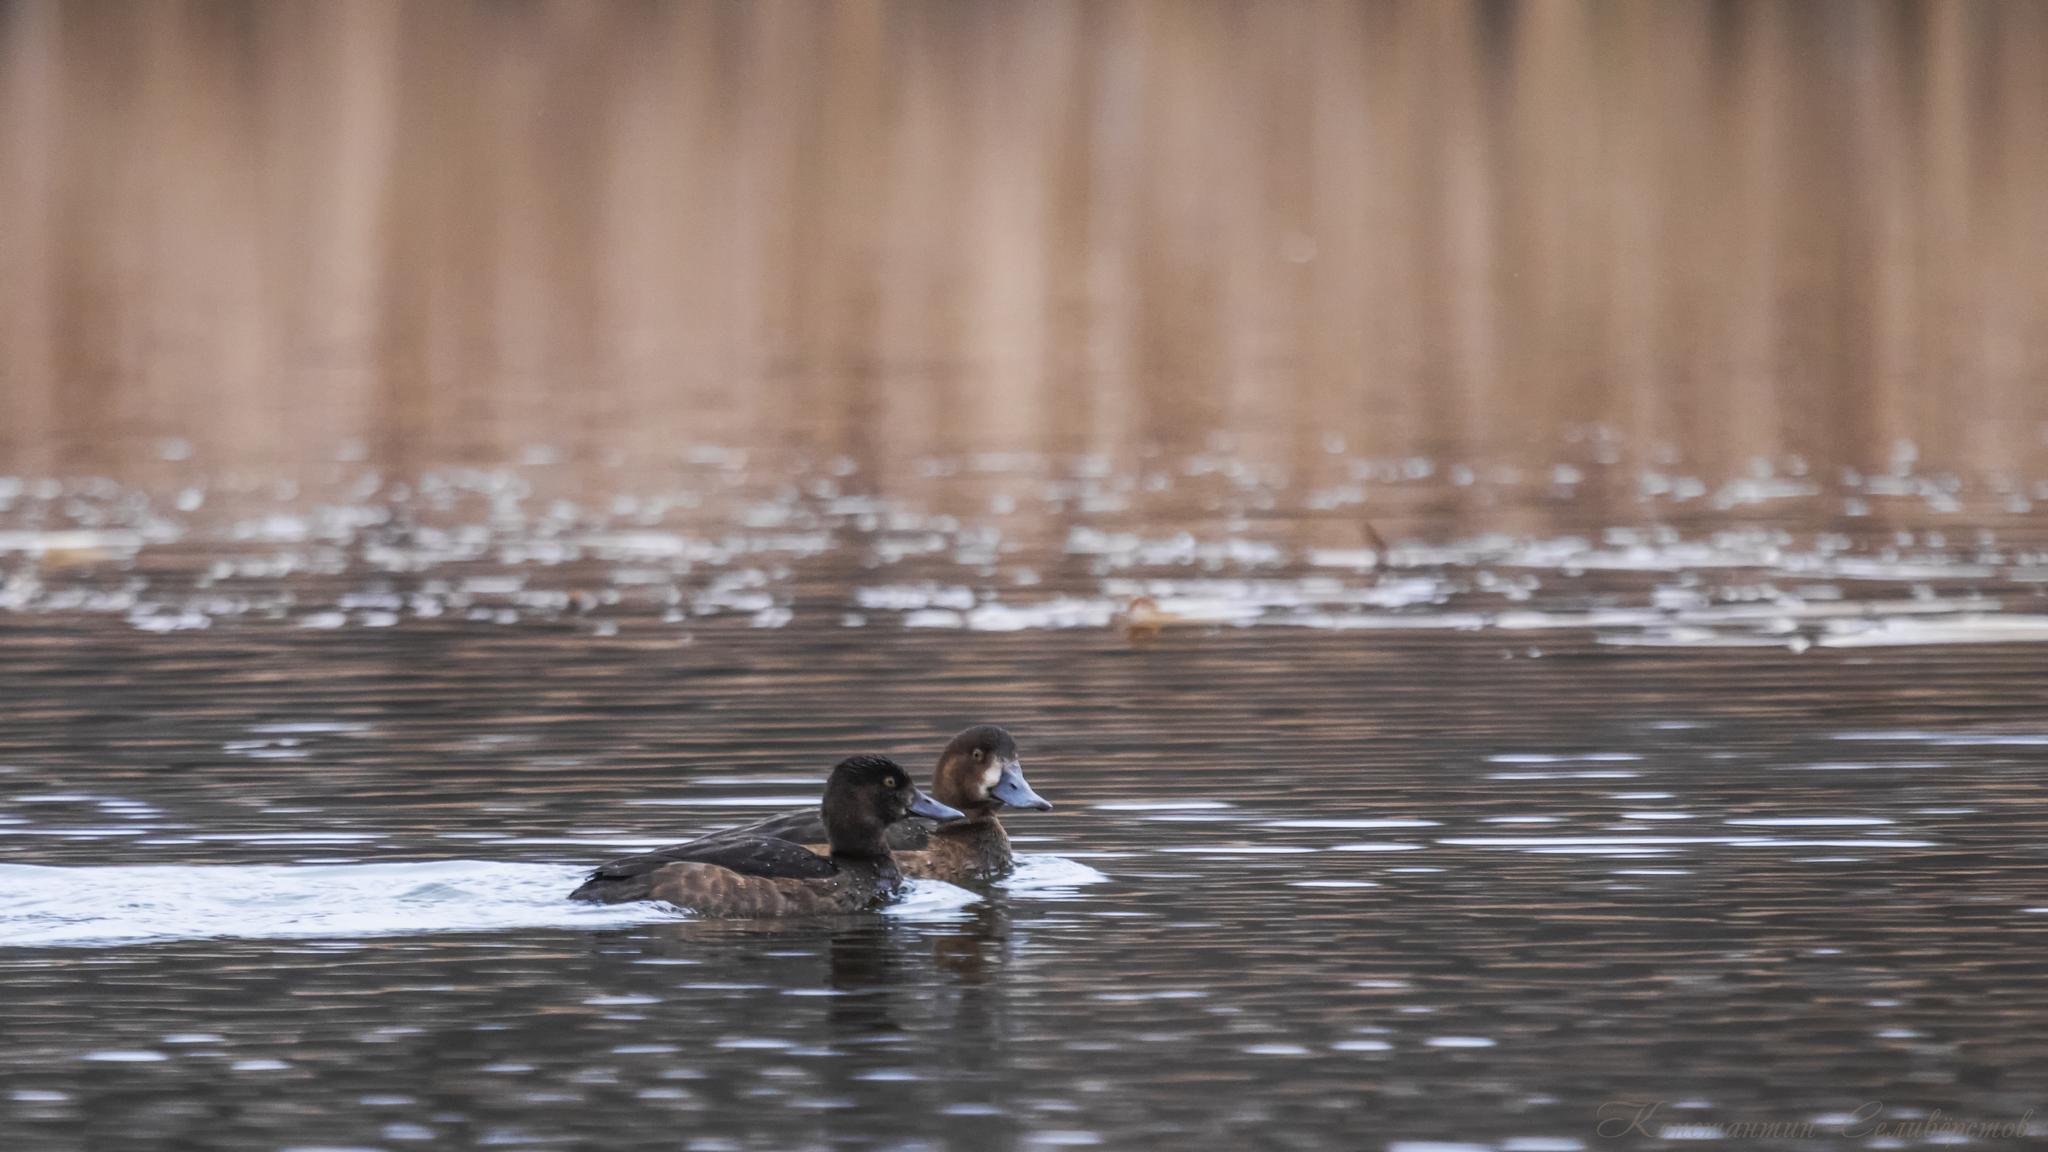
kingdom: Animalia
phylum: Chordata
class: Aves
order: Anseriformes
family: Anatidae
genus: Aythya
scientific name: Aythya marila
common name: Greater scaup
